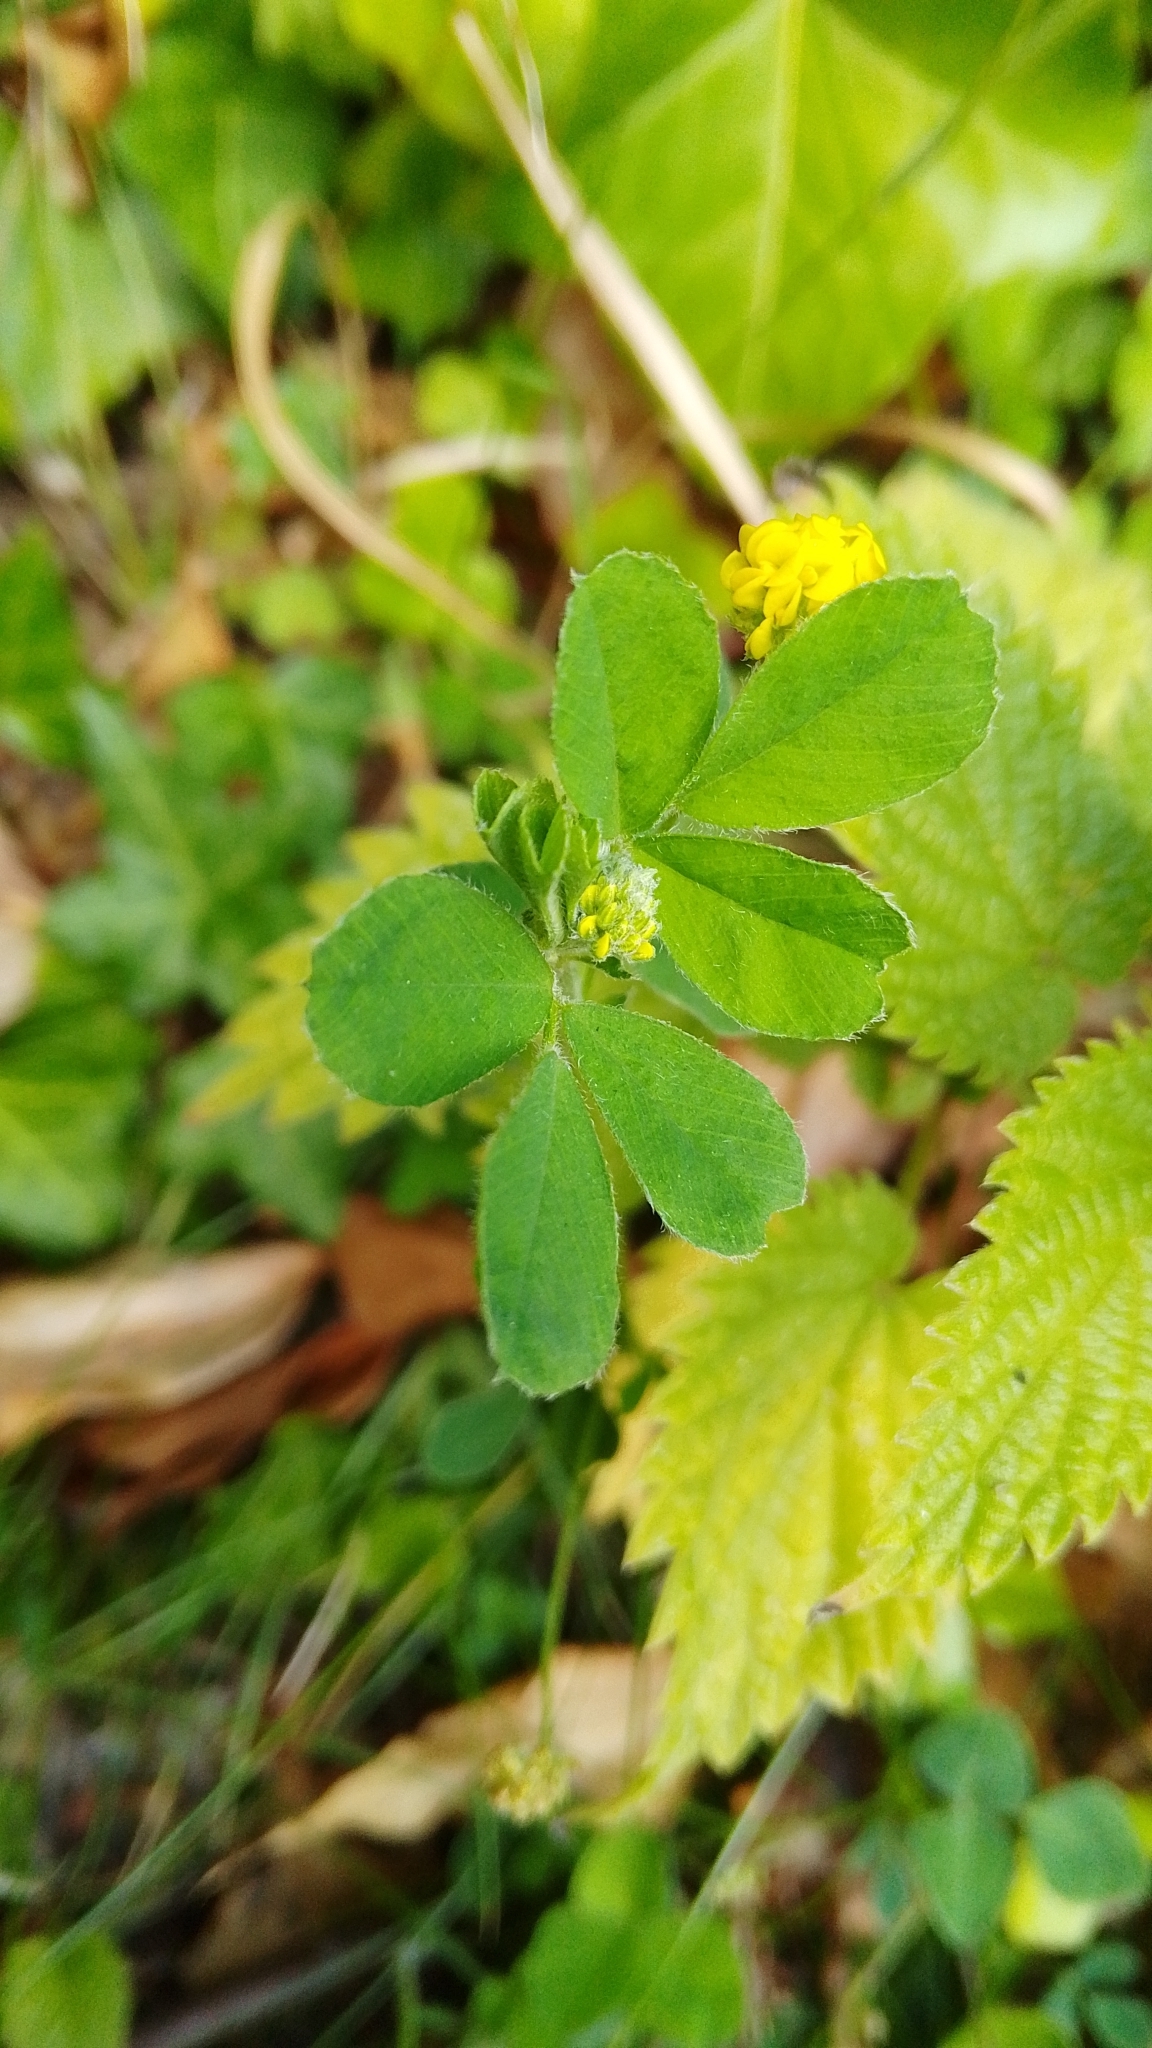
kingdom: Plantae
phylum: Tracheophyta
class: Magnoliopsida
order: Fabales
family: Fabaceae
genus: Medicago
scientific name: Medicago lupulina
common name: Black medick
